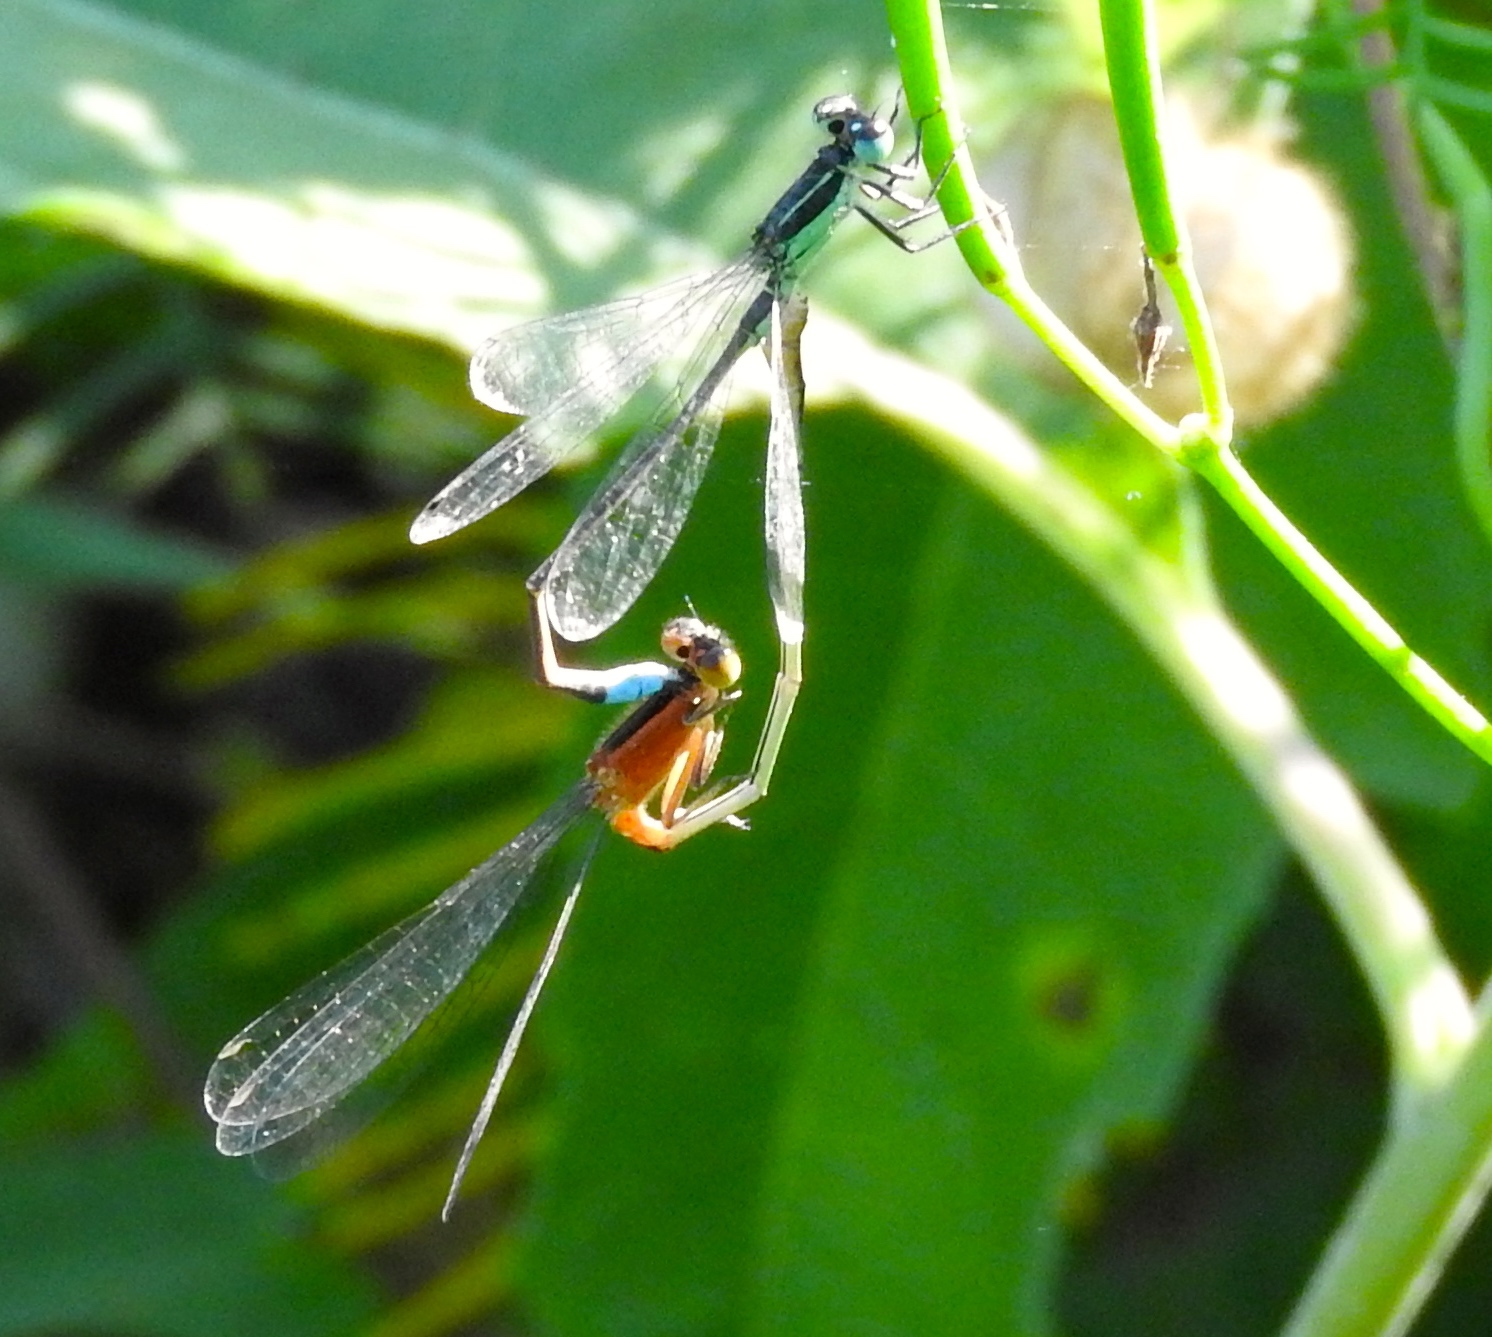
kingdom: Animalia
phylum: Arthropoda
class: Insecta
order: Odonata
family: Coenagrionidae
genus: Ischnura
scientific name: Ischnura ramburii
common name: Rambur's forktail
